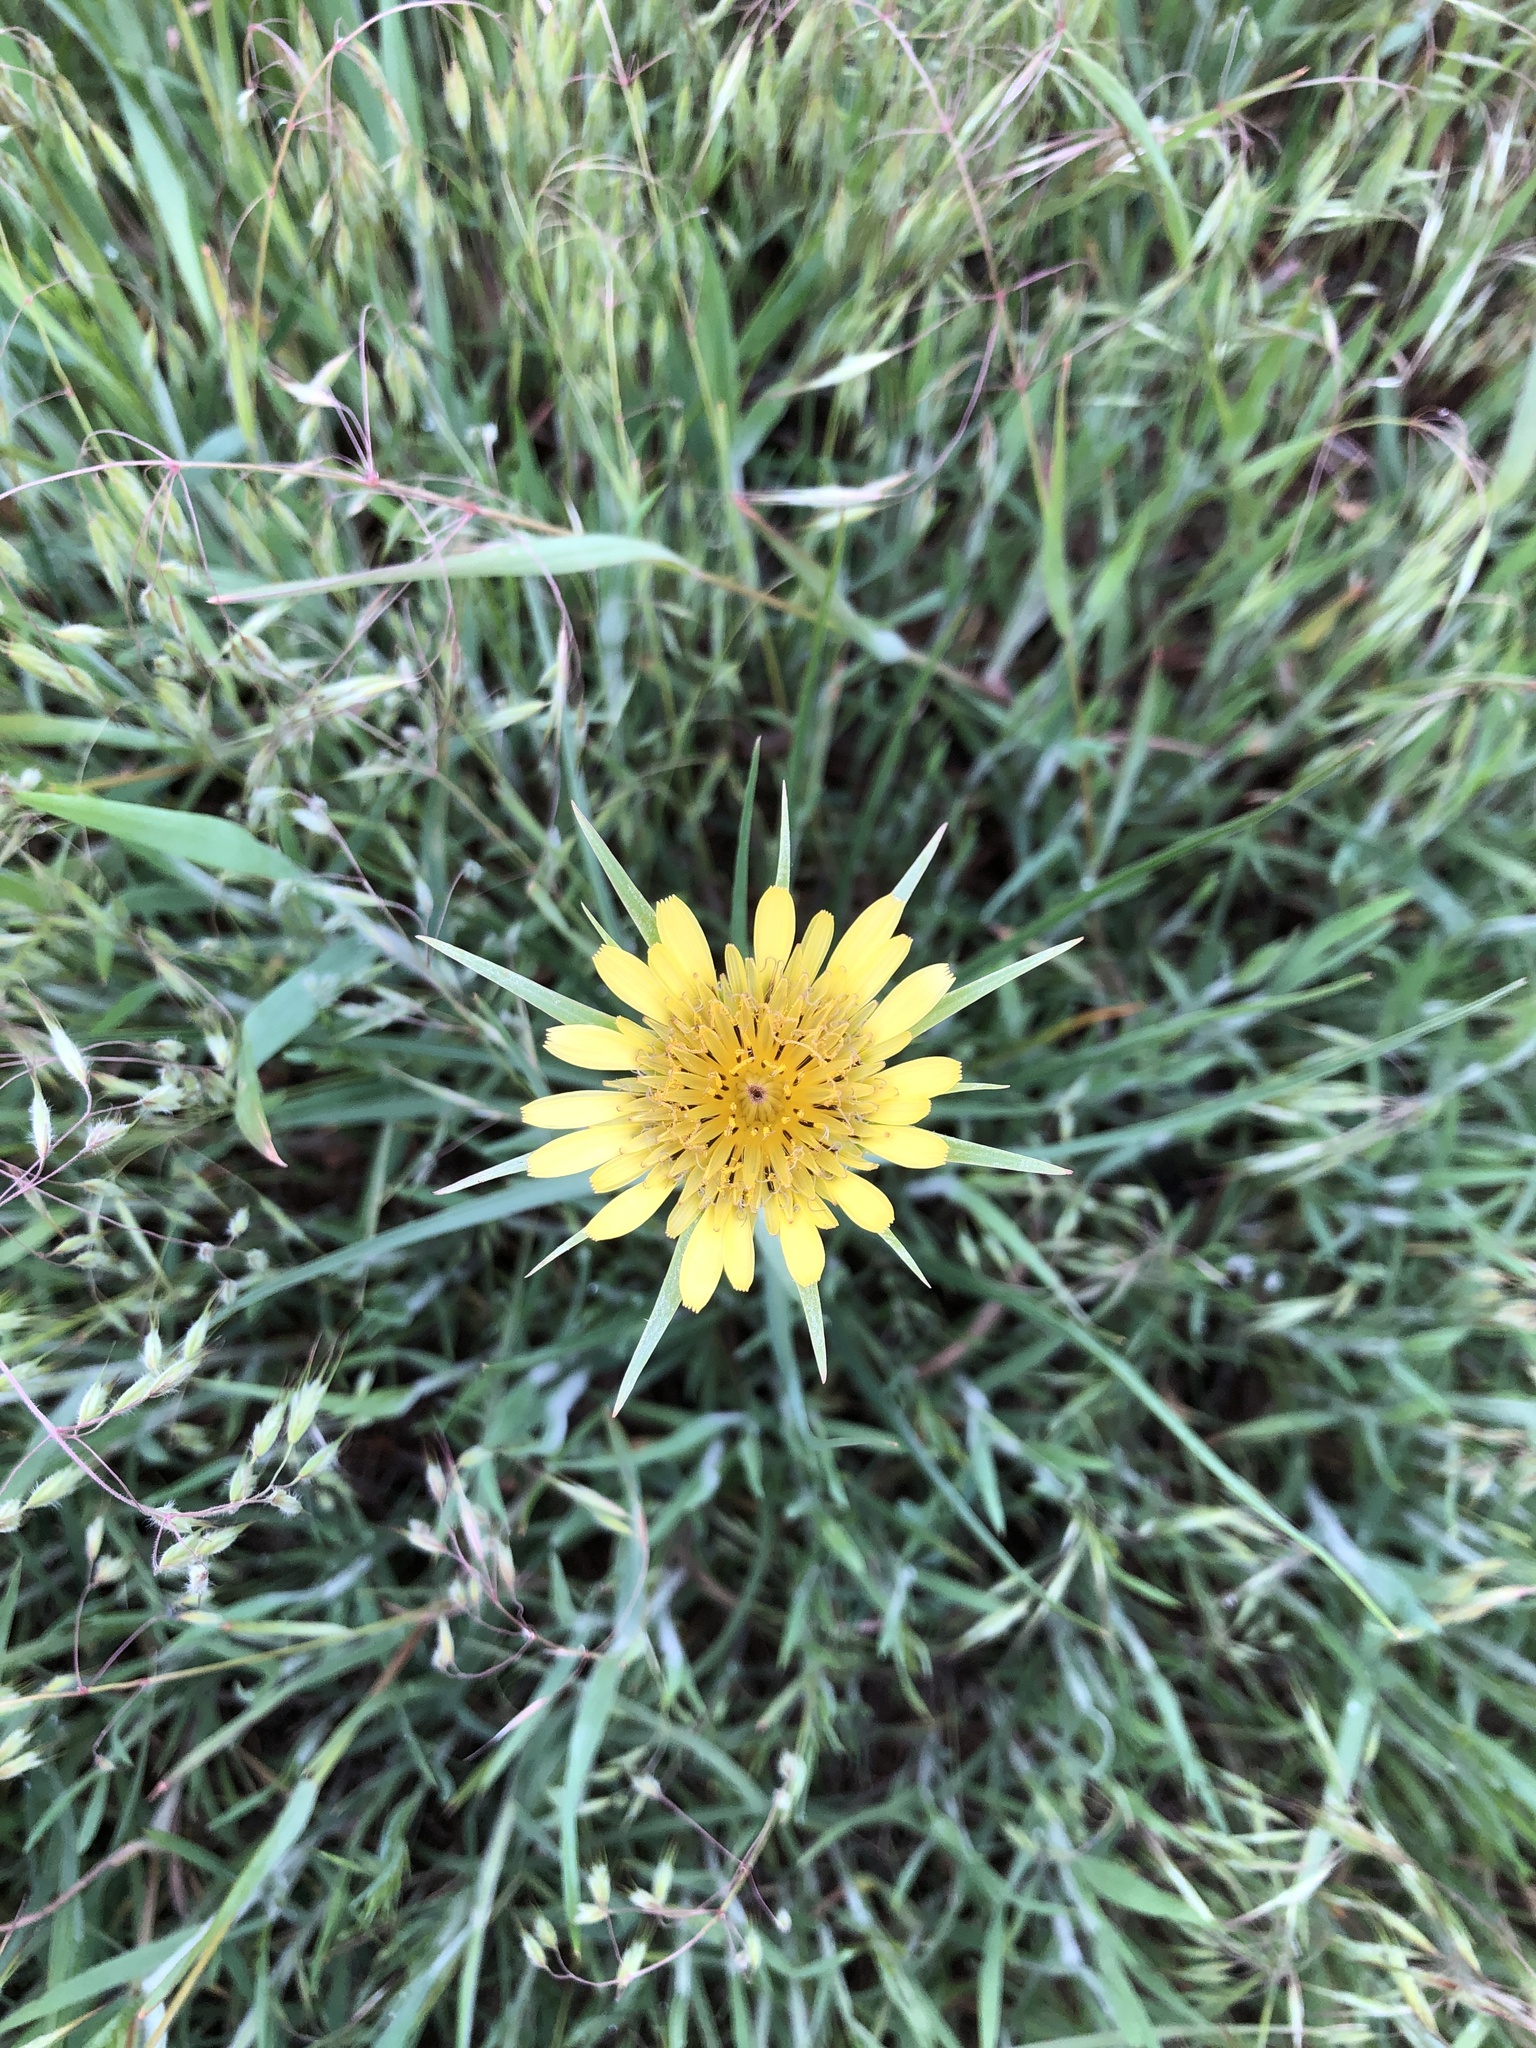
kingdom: Plantae
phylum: Tracheophyta
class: Magnoliopsida
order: Asterales
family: Asteraceae
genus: Tragopogon
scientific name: Tragopogon dubius
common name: Yellow salsify
